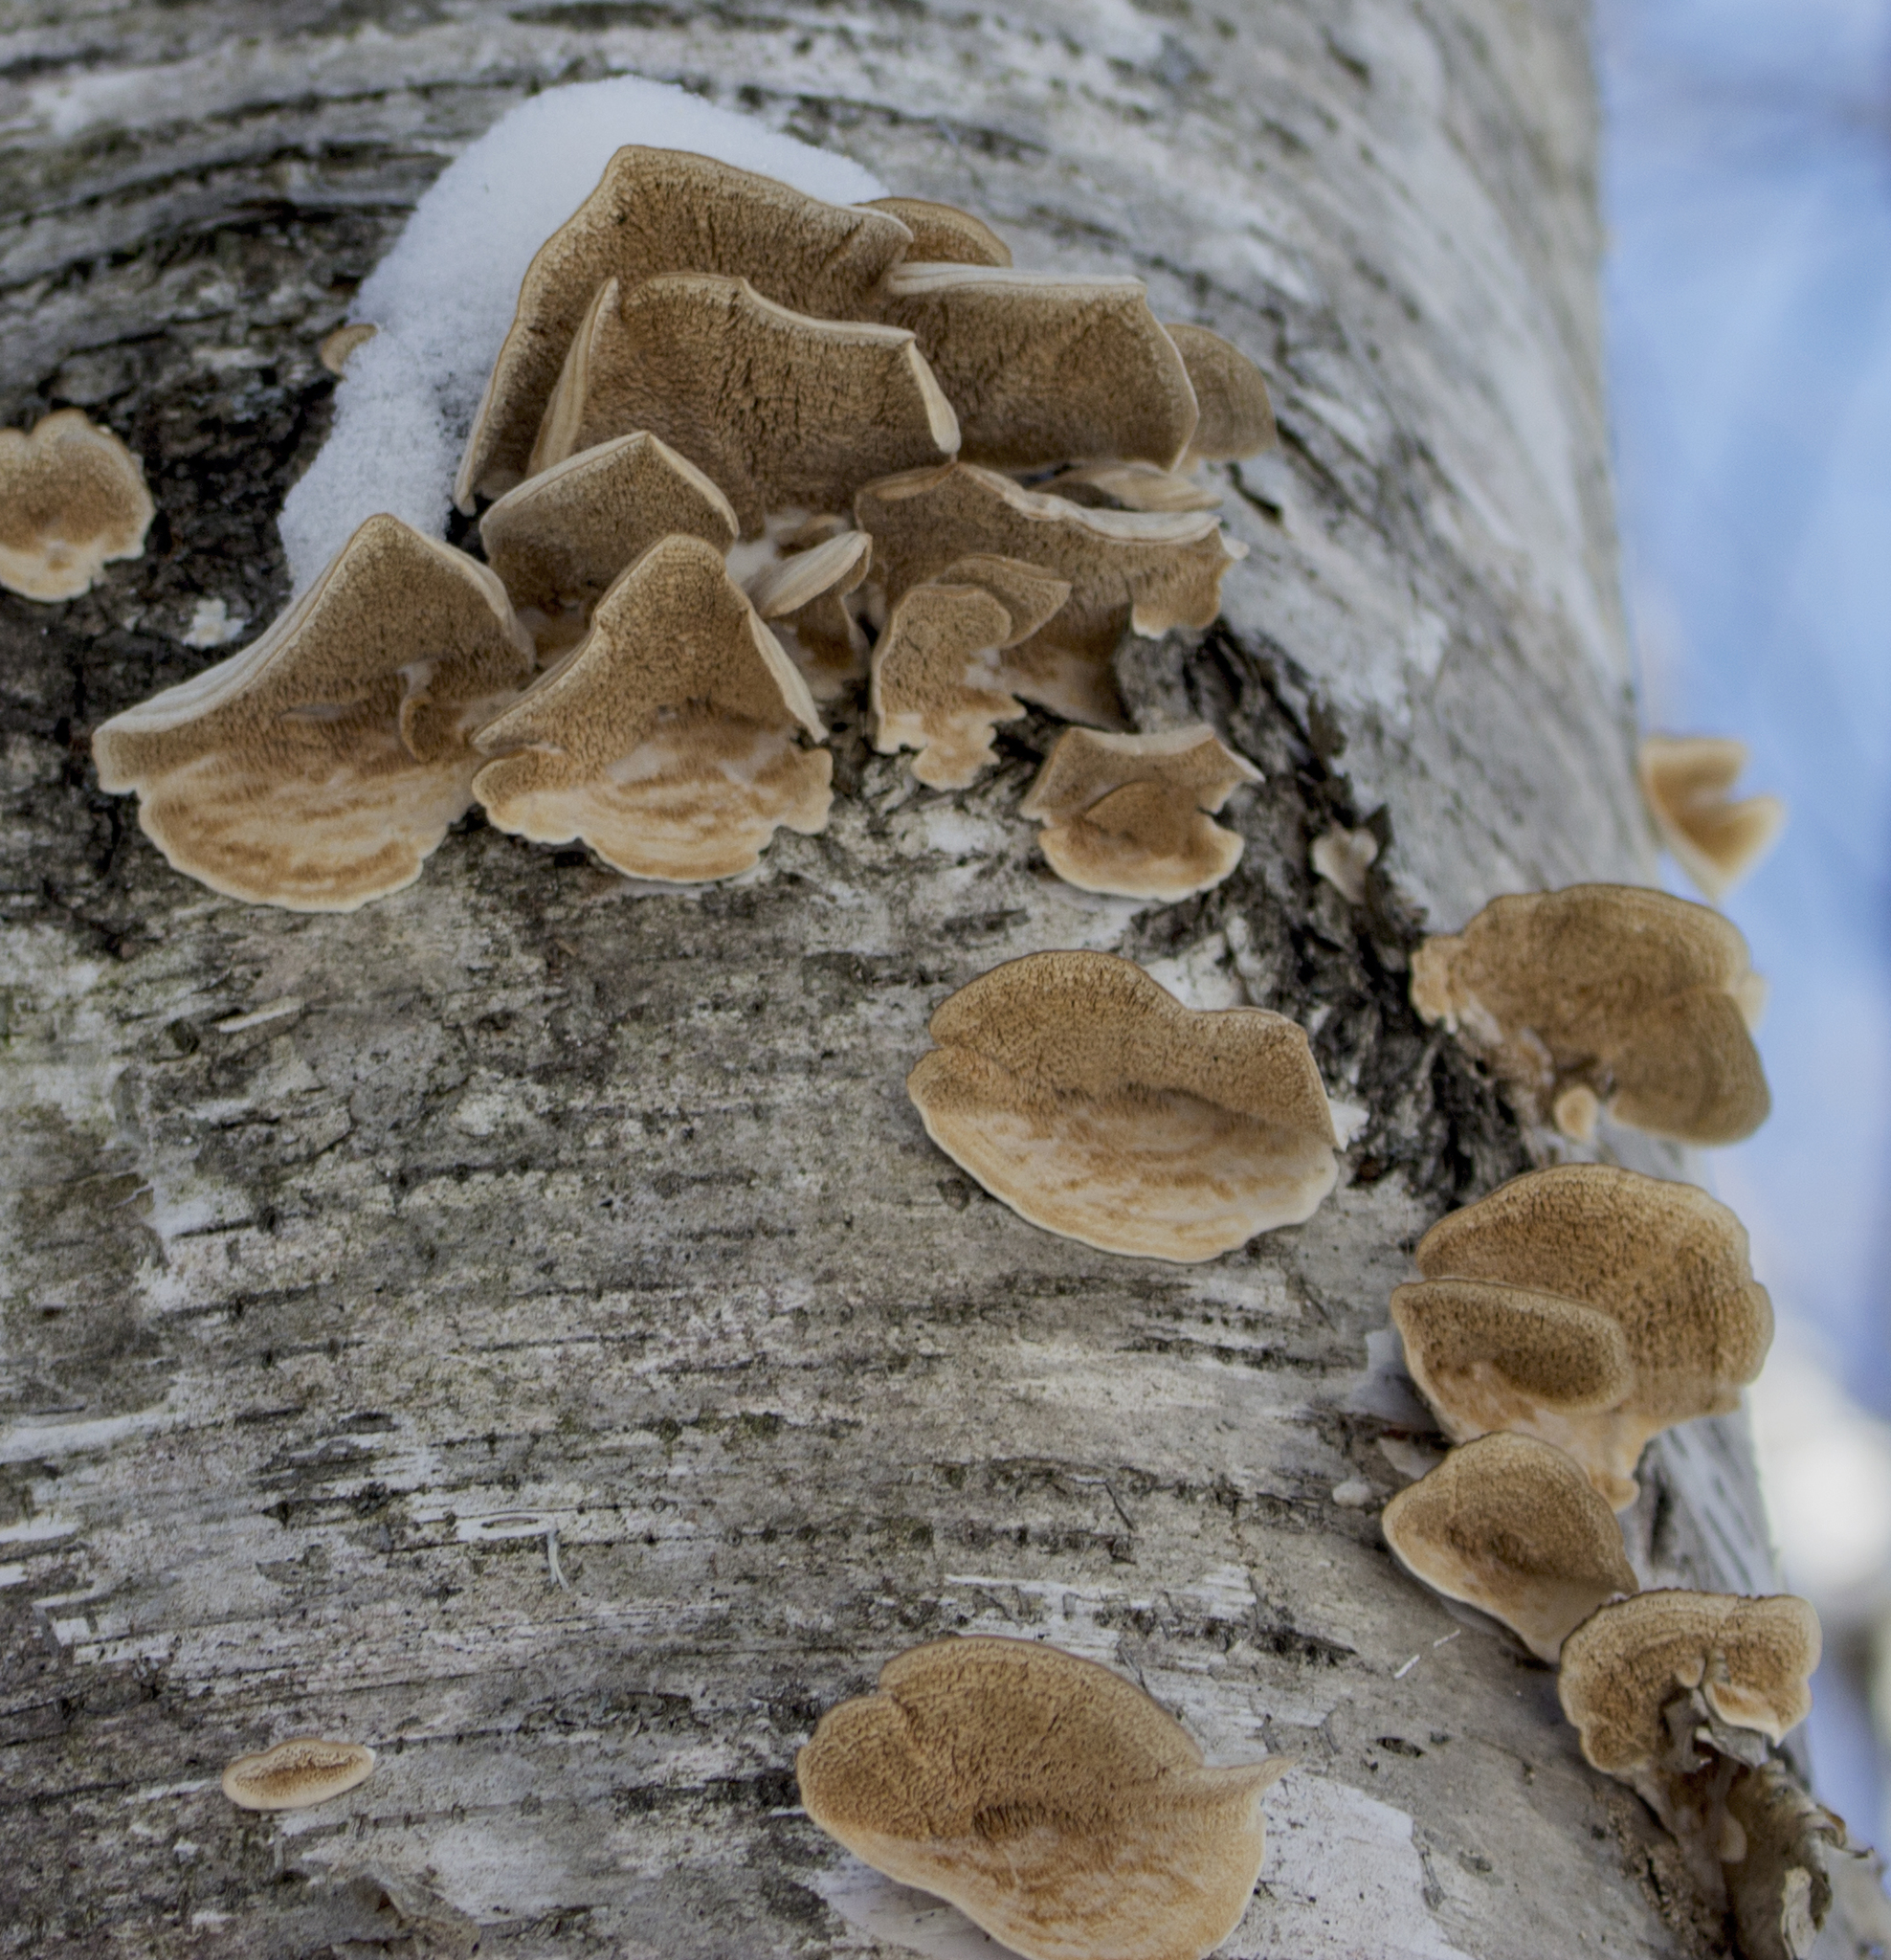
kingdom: Fungi
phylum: Basidiomycota
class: Agaricomycetes
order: Hymenochaetales
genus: Trichaptum
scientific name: Trichaptum biforme
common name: Violet-toothed polypore
